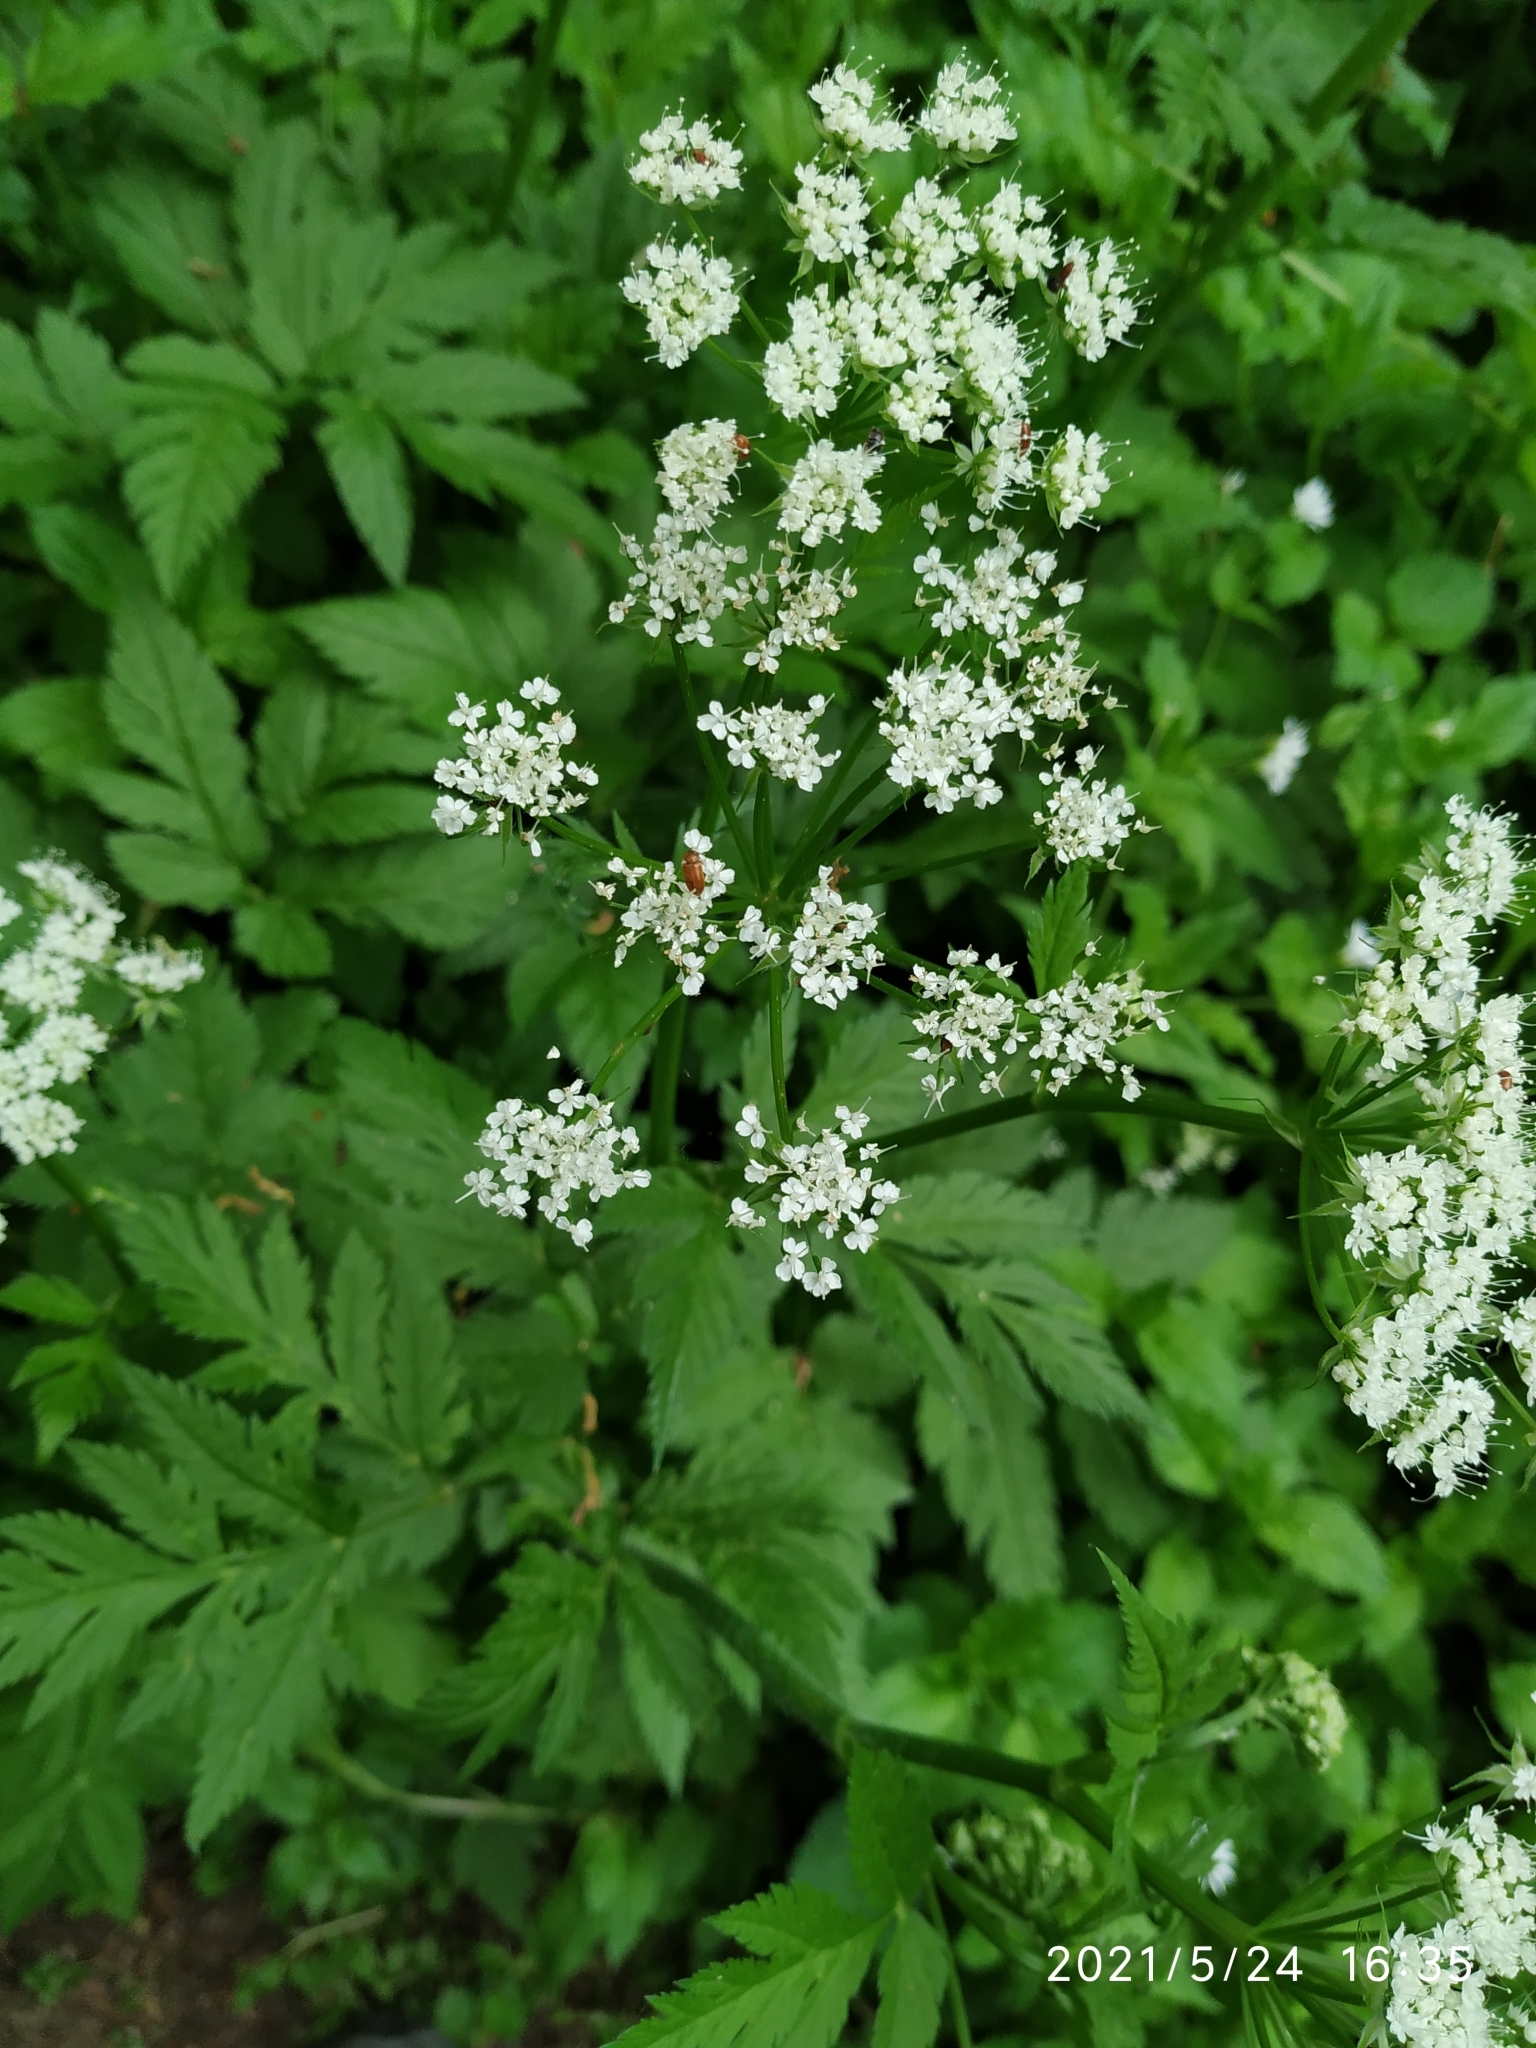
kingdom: Plantae
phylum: Tracheophyta
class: Magnoliopsida
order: Apiales
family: Apiaceae
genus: Chaerophyllum
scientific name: Chaerophyllum hirsutum
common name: Hairy chervil
